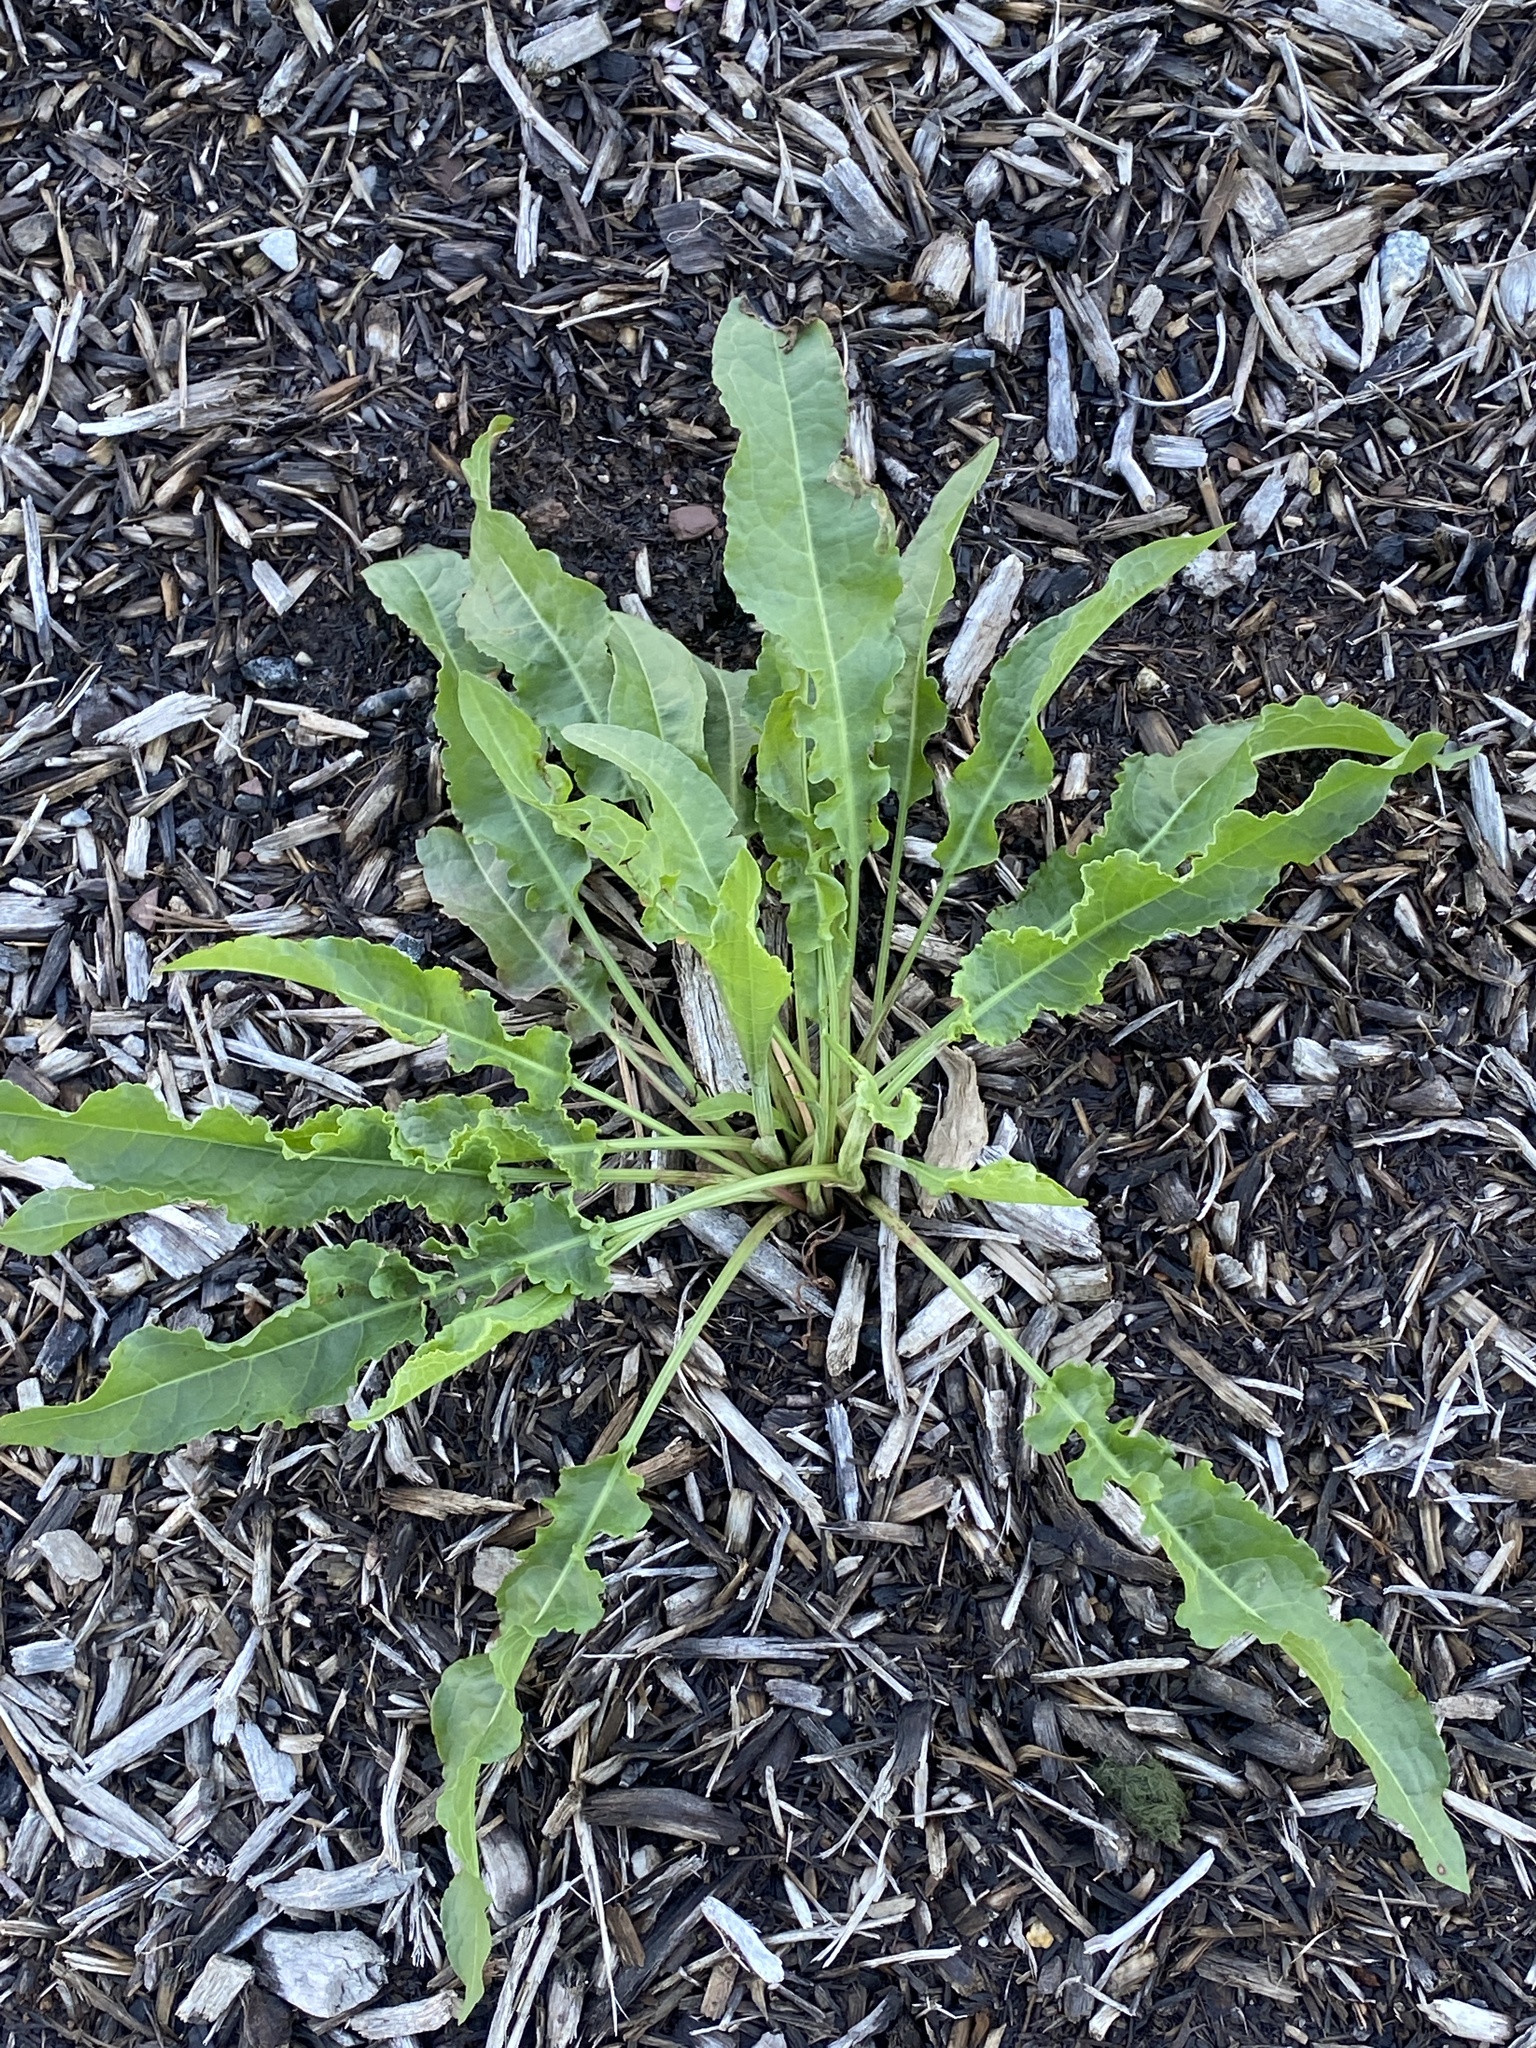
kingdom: Plantae
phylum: Tracheophyta
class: Magnoliopsida
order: Caryophyllales
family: Polygonaceae
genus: Rumex
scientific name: Rumex crispus
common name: Curled dock
